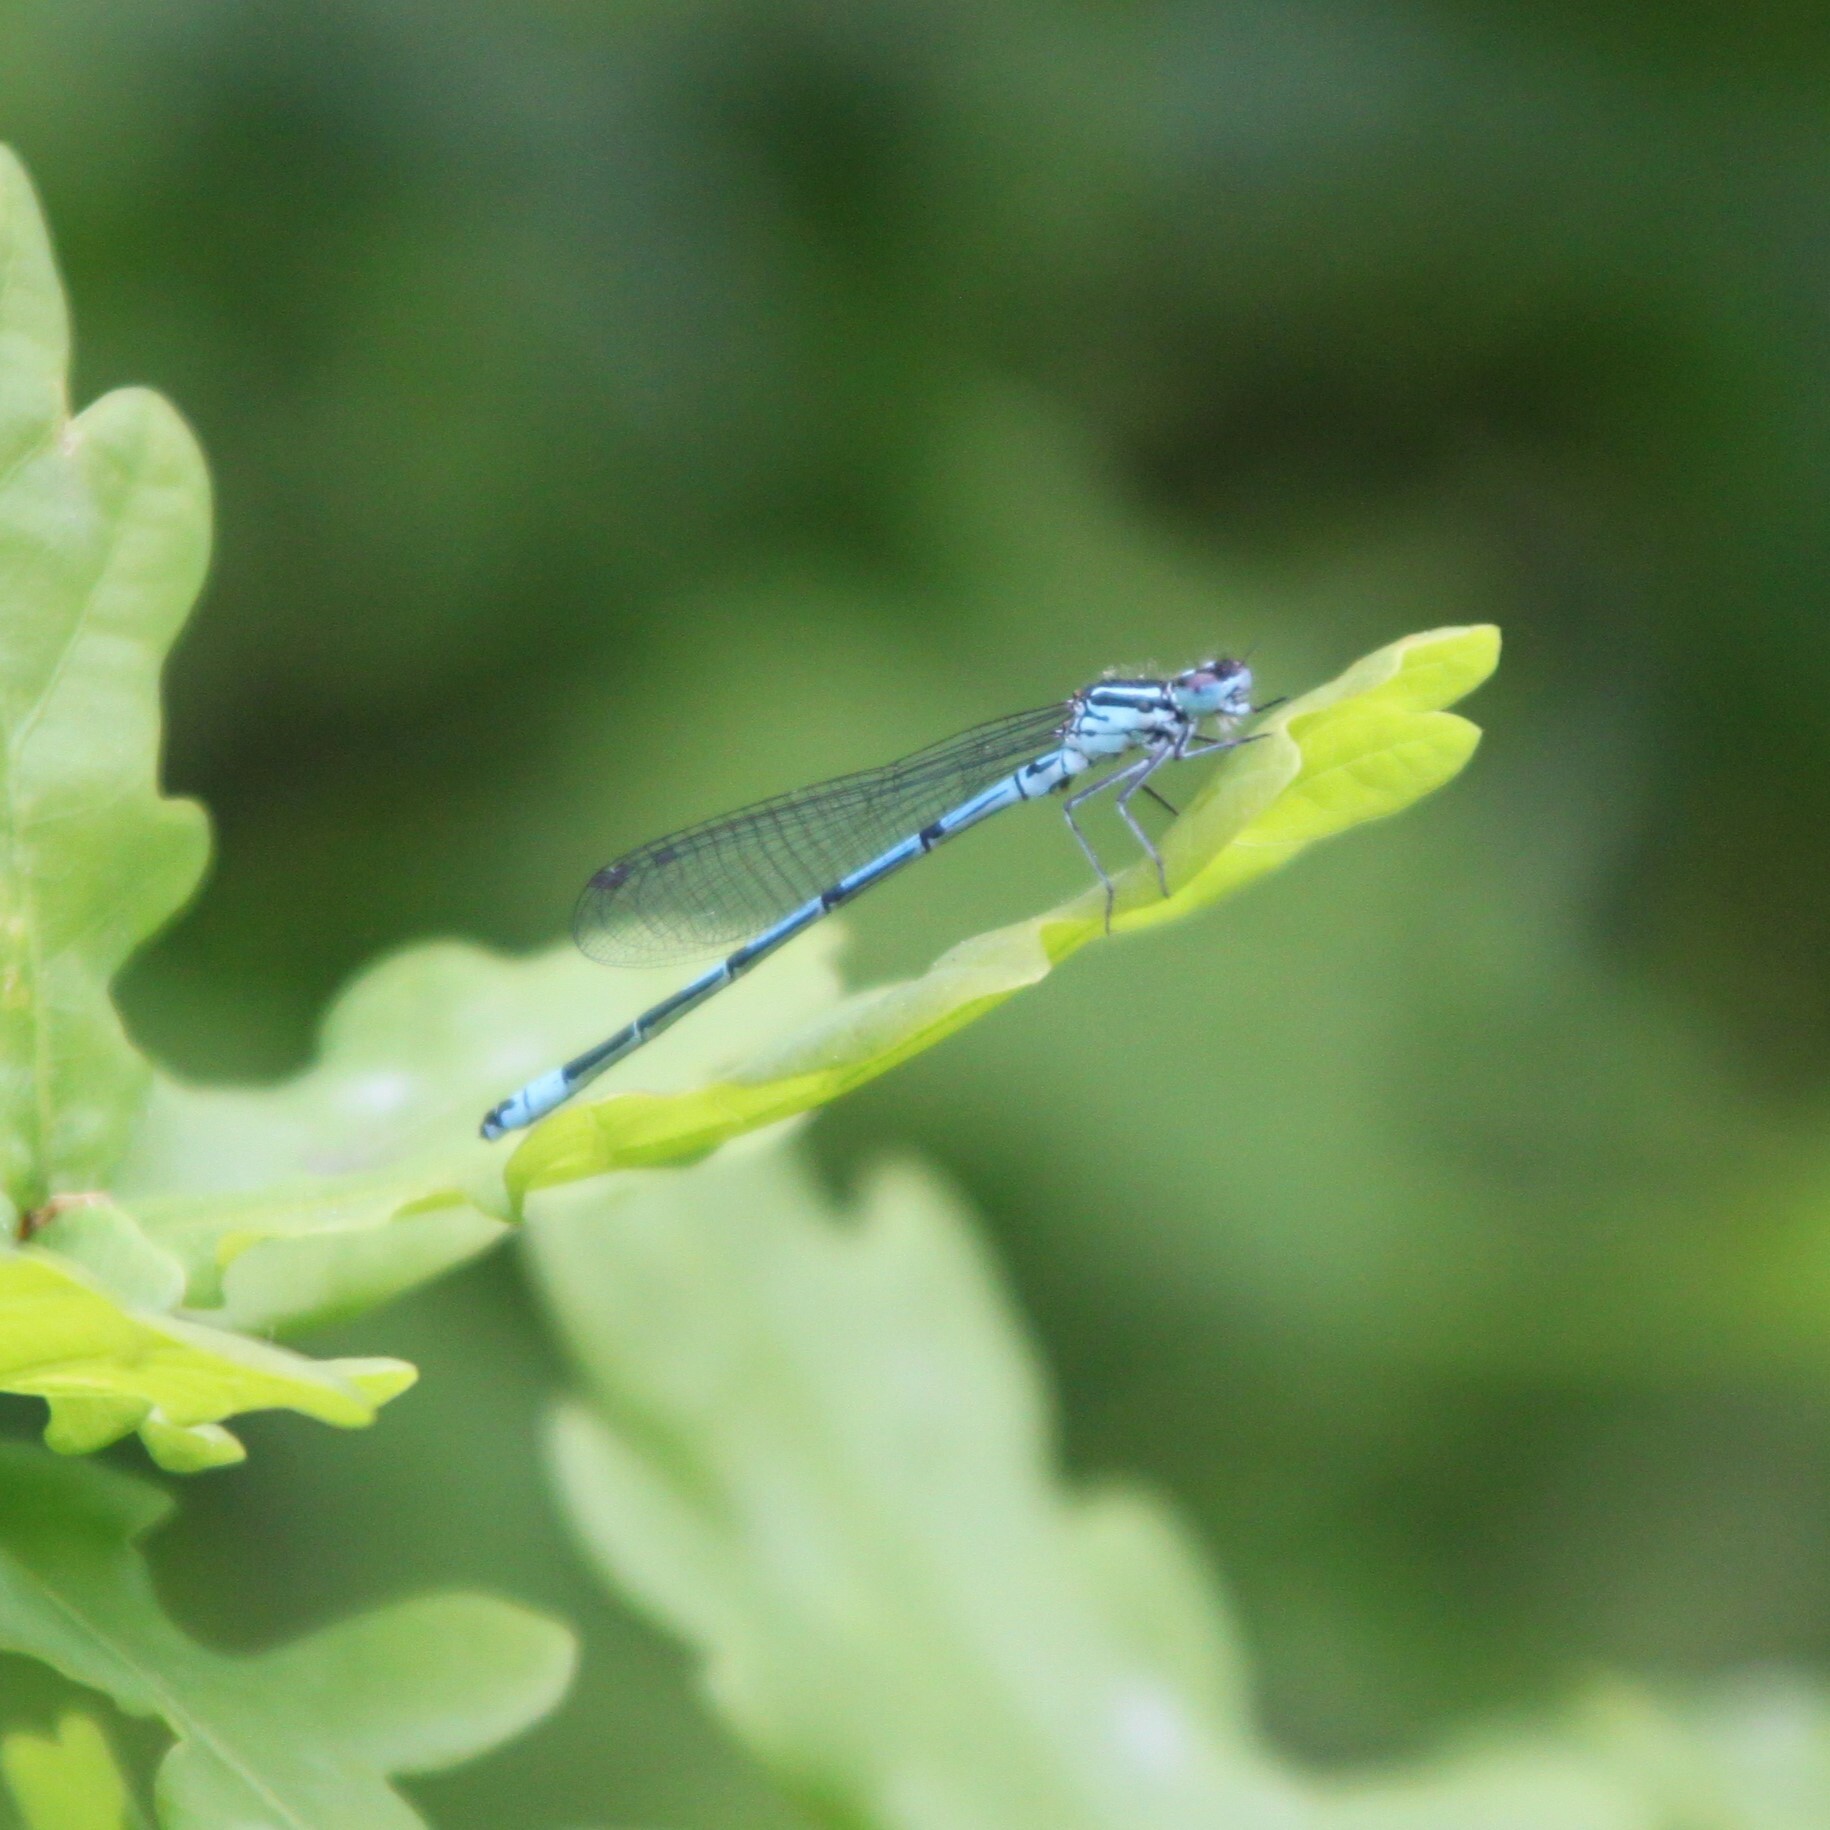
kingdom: Animalia
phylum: Arthropoda
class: Insecta
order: Odonata
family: Coenagrionidae
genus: Coenagrion
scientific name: Coenagrion puella
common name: Azure damselfly
